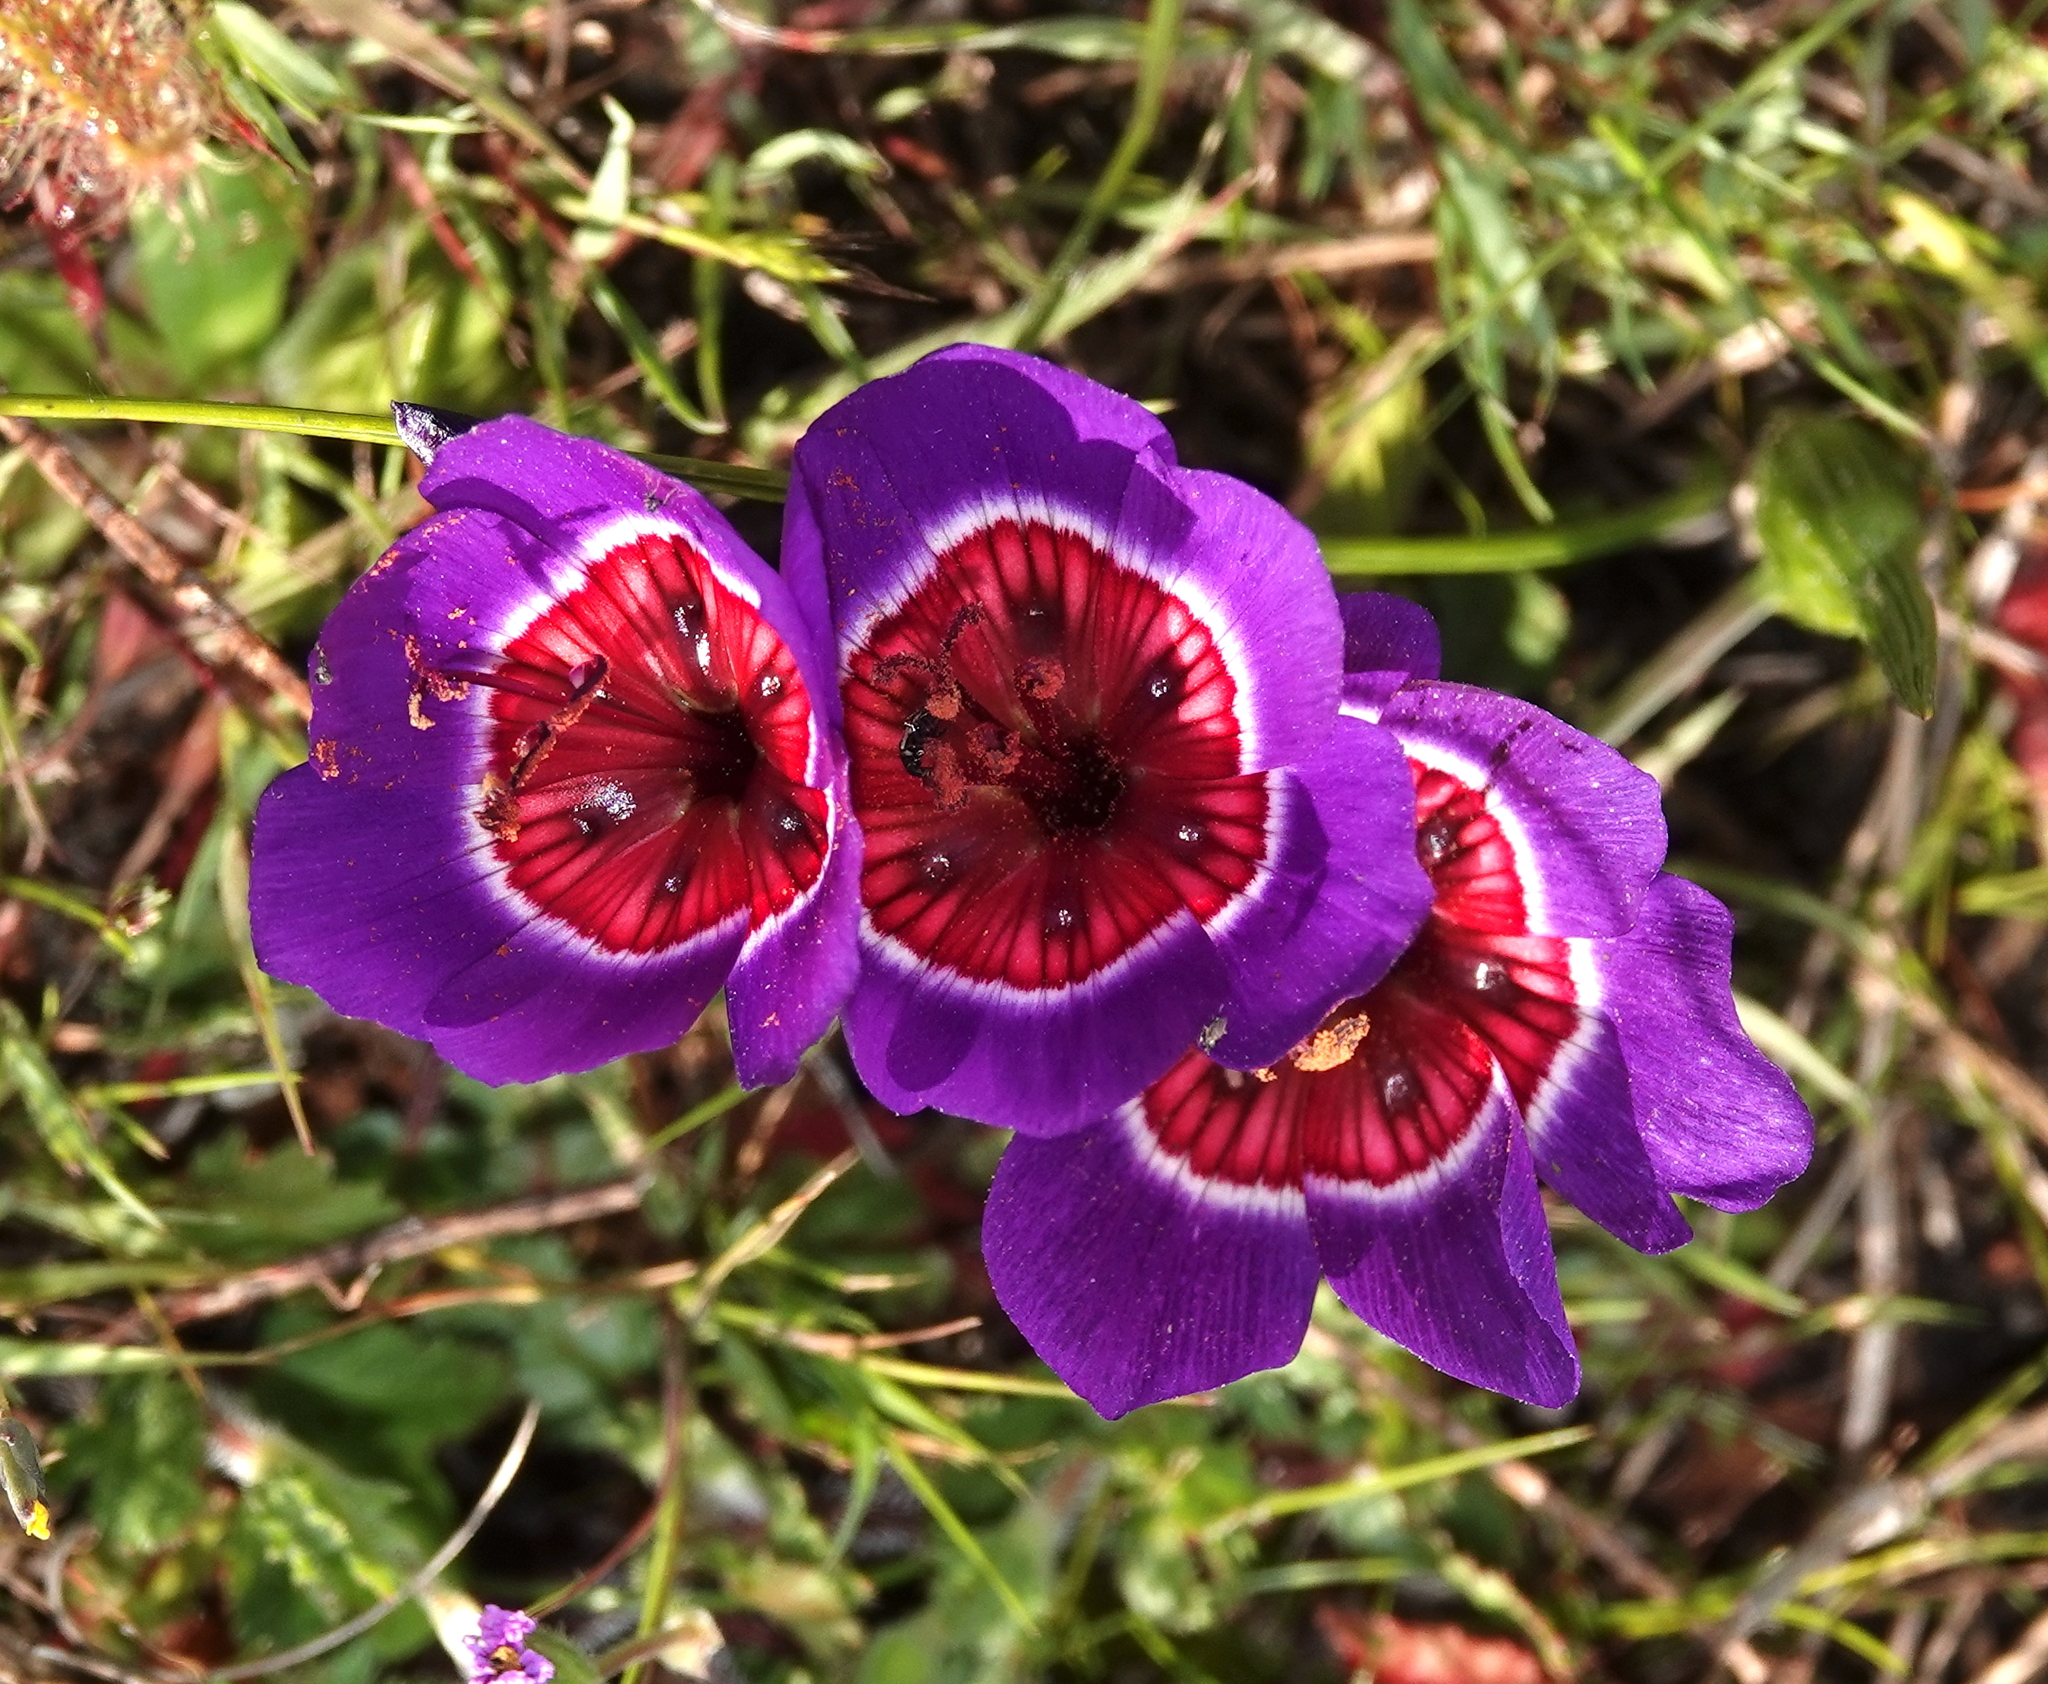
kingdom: Plantae
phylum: Tracheophyta
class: Liliopsida
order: Asparagales
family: Iridaceae
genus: Geissorhiza
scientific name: Geissorhiza radians
